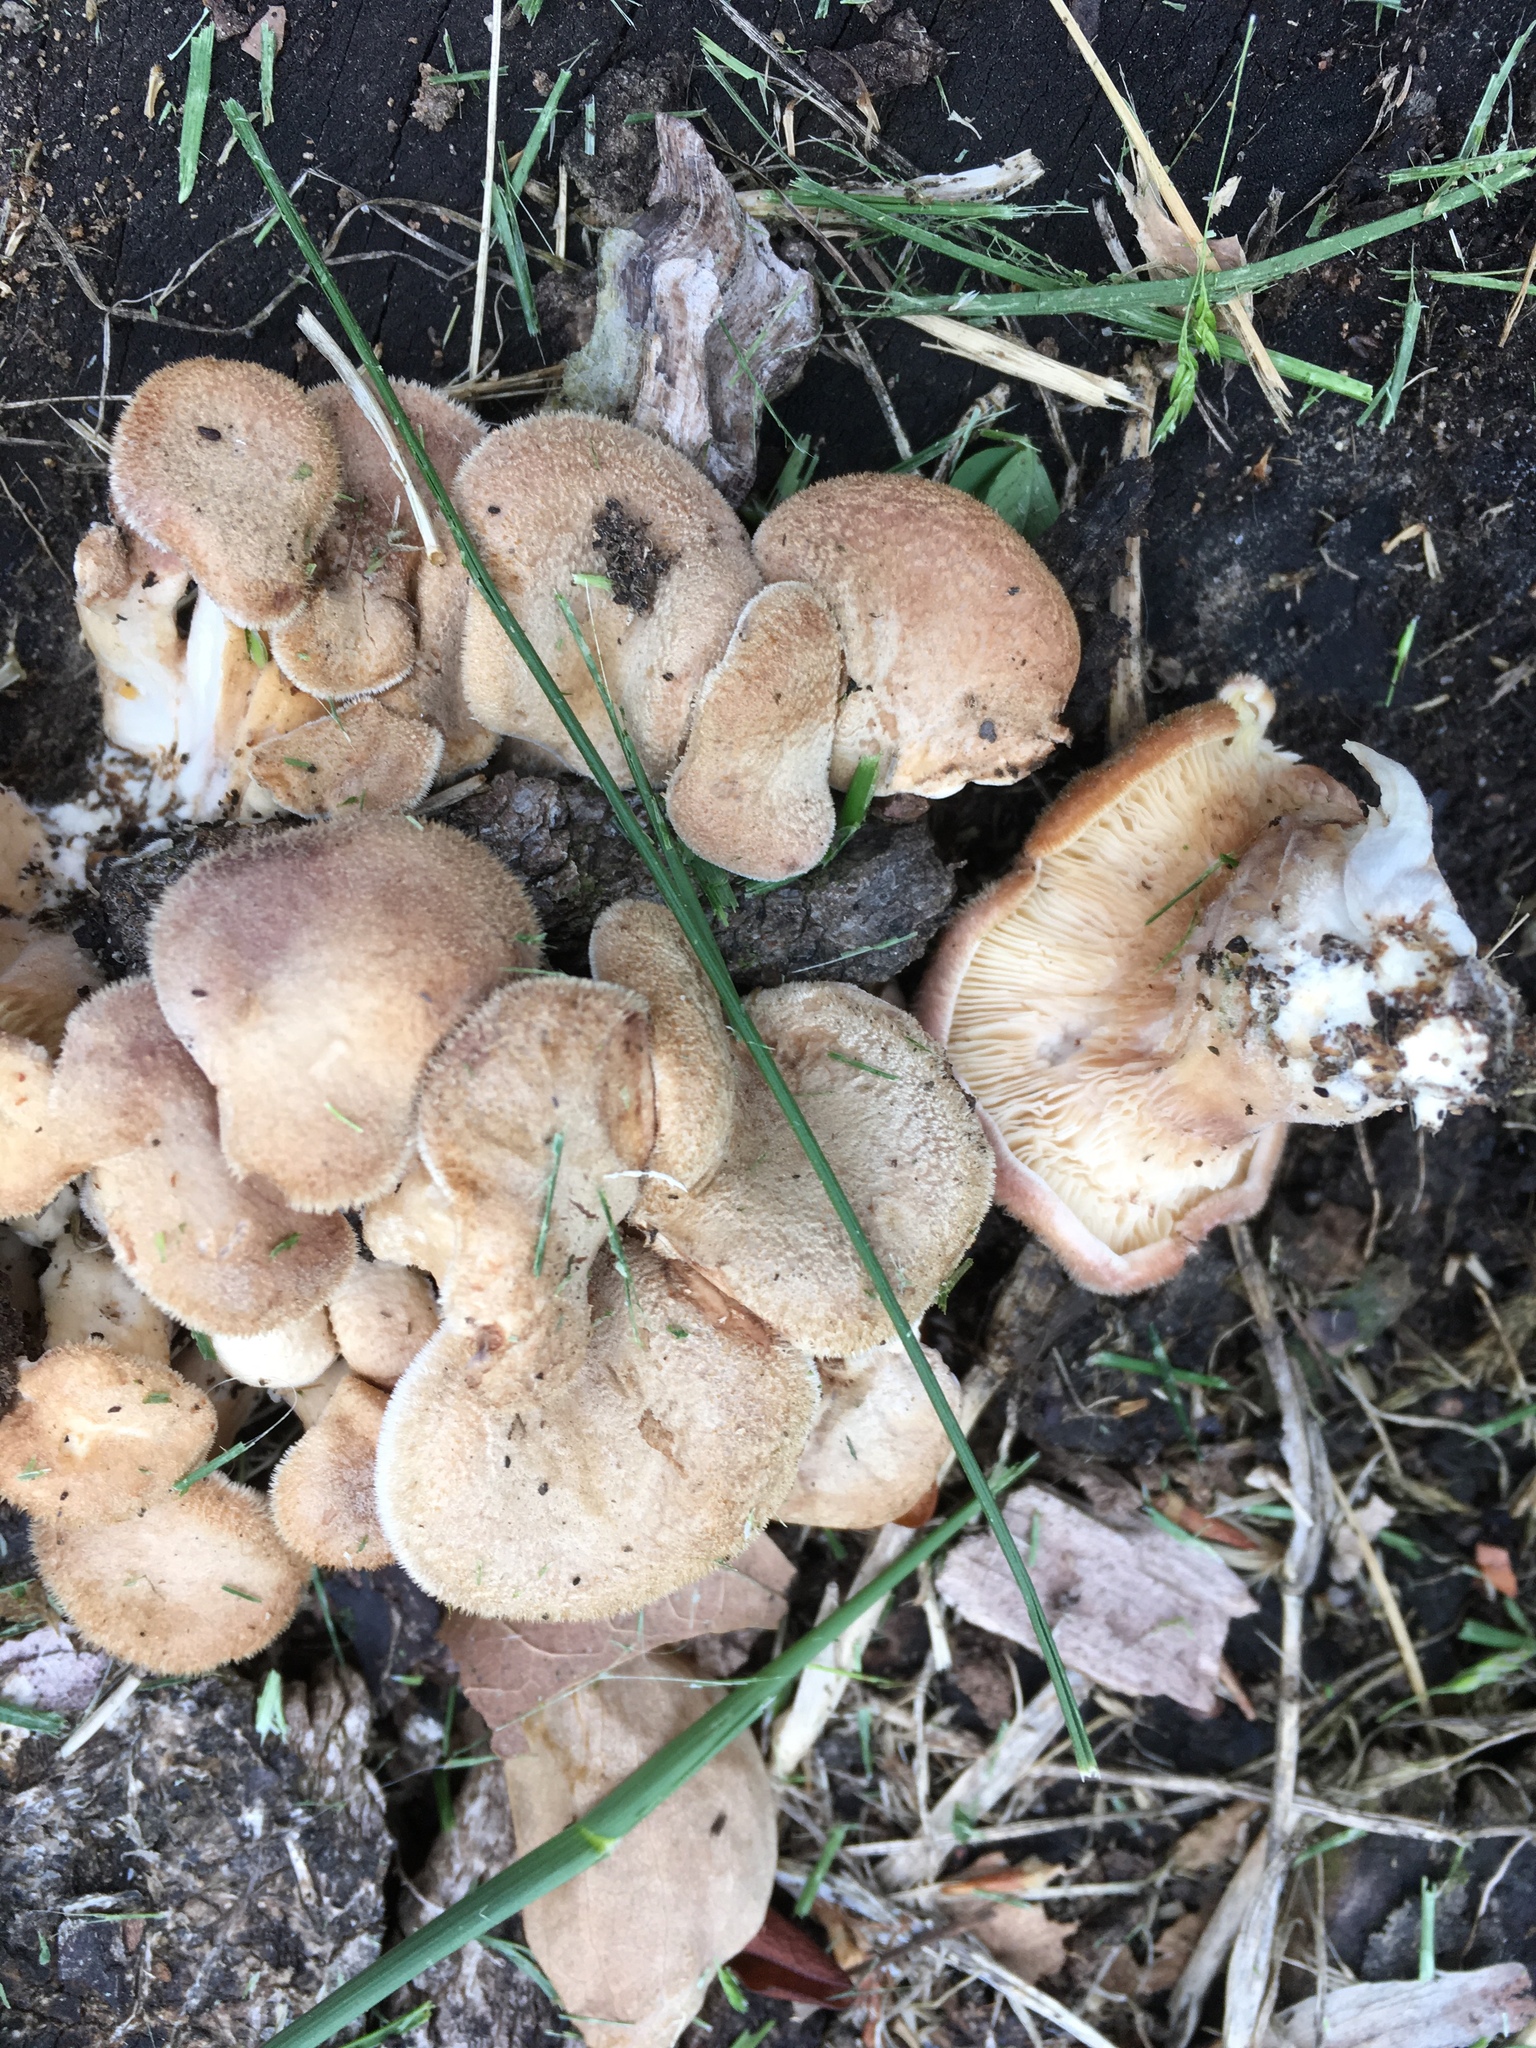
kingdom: Fungi
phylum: Basidiomycota
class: Agaricomycetes
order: Polyporales
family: Panaceae
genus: Panus
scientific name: Panus neostrigosus
